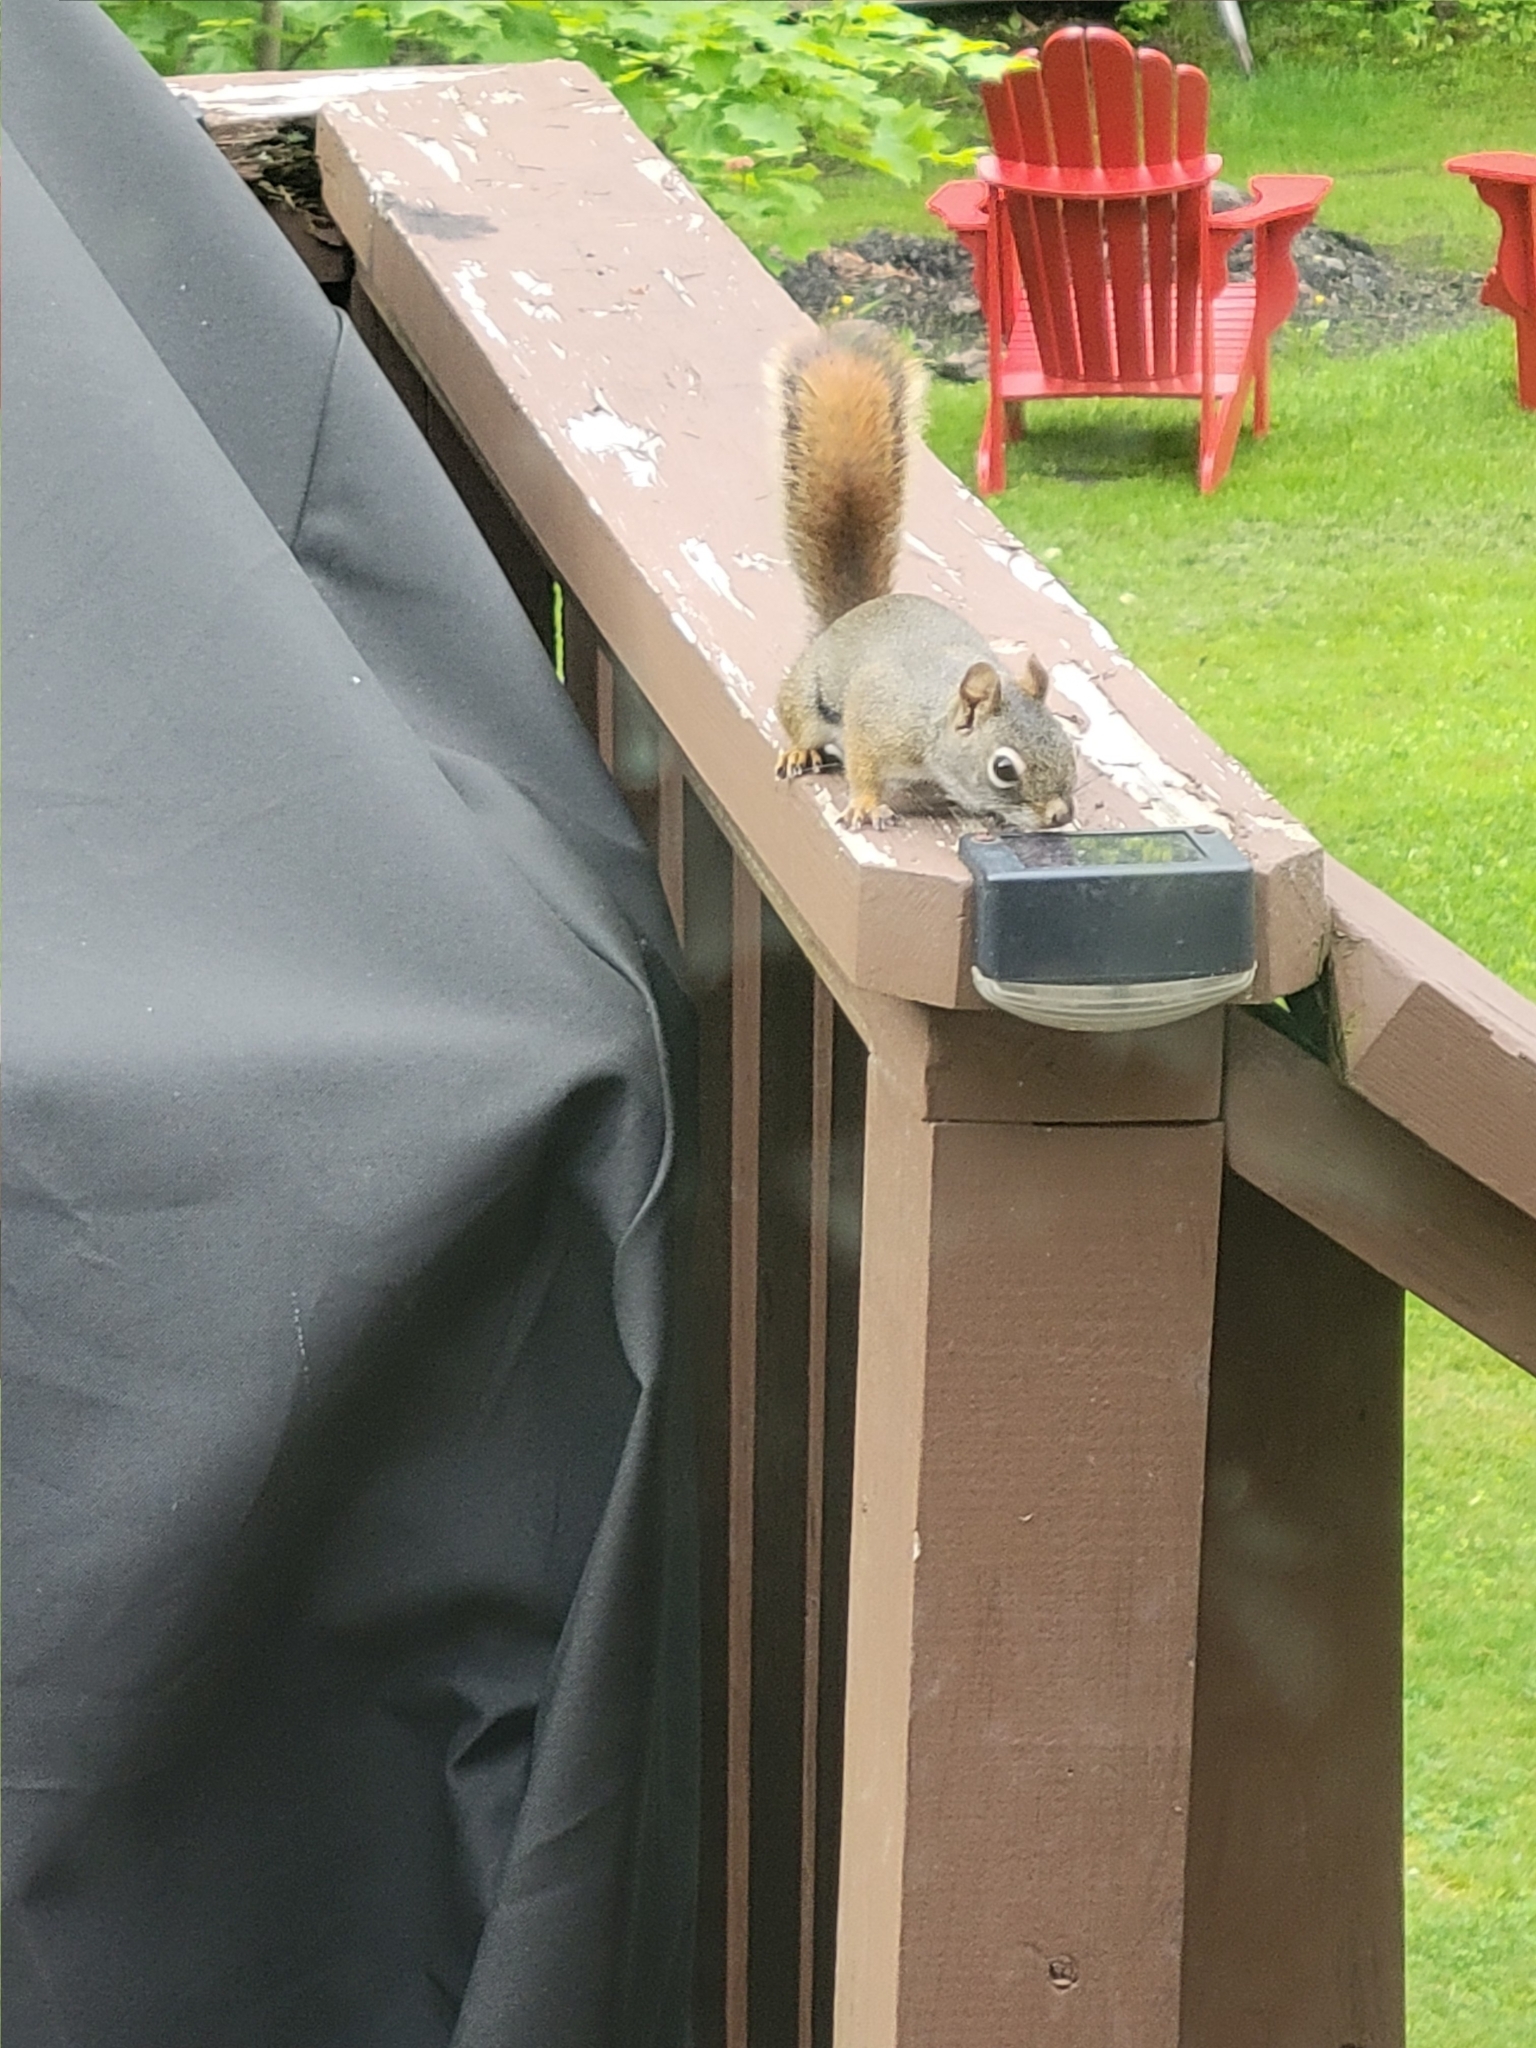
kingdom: Animalia
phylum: Chordata
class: Mammalia
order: Rodentia
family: Sciuridae
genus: Tamiasciurus
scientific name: Tamiasciurus hudsonicus
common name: Red squirrel
